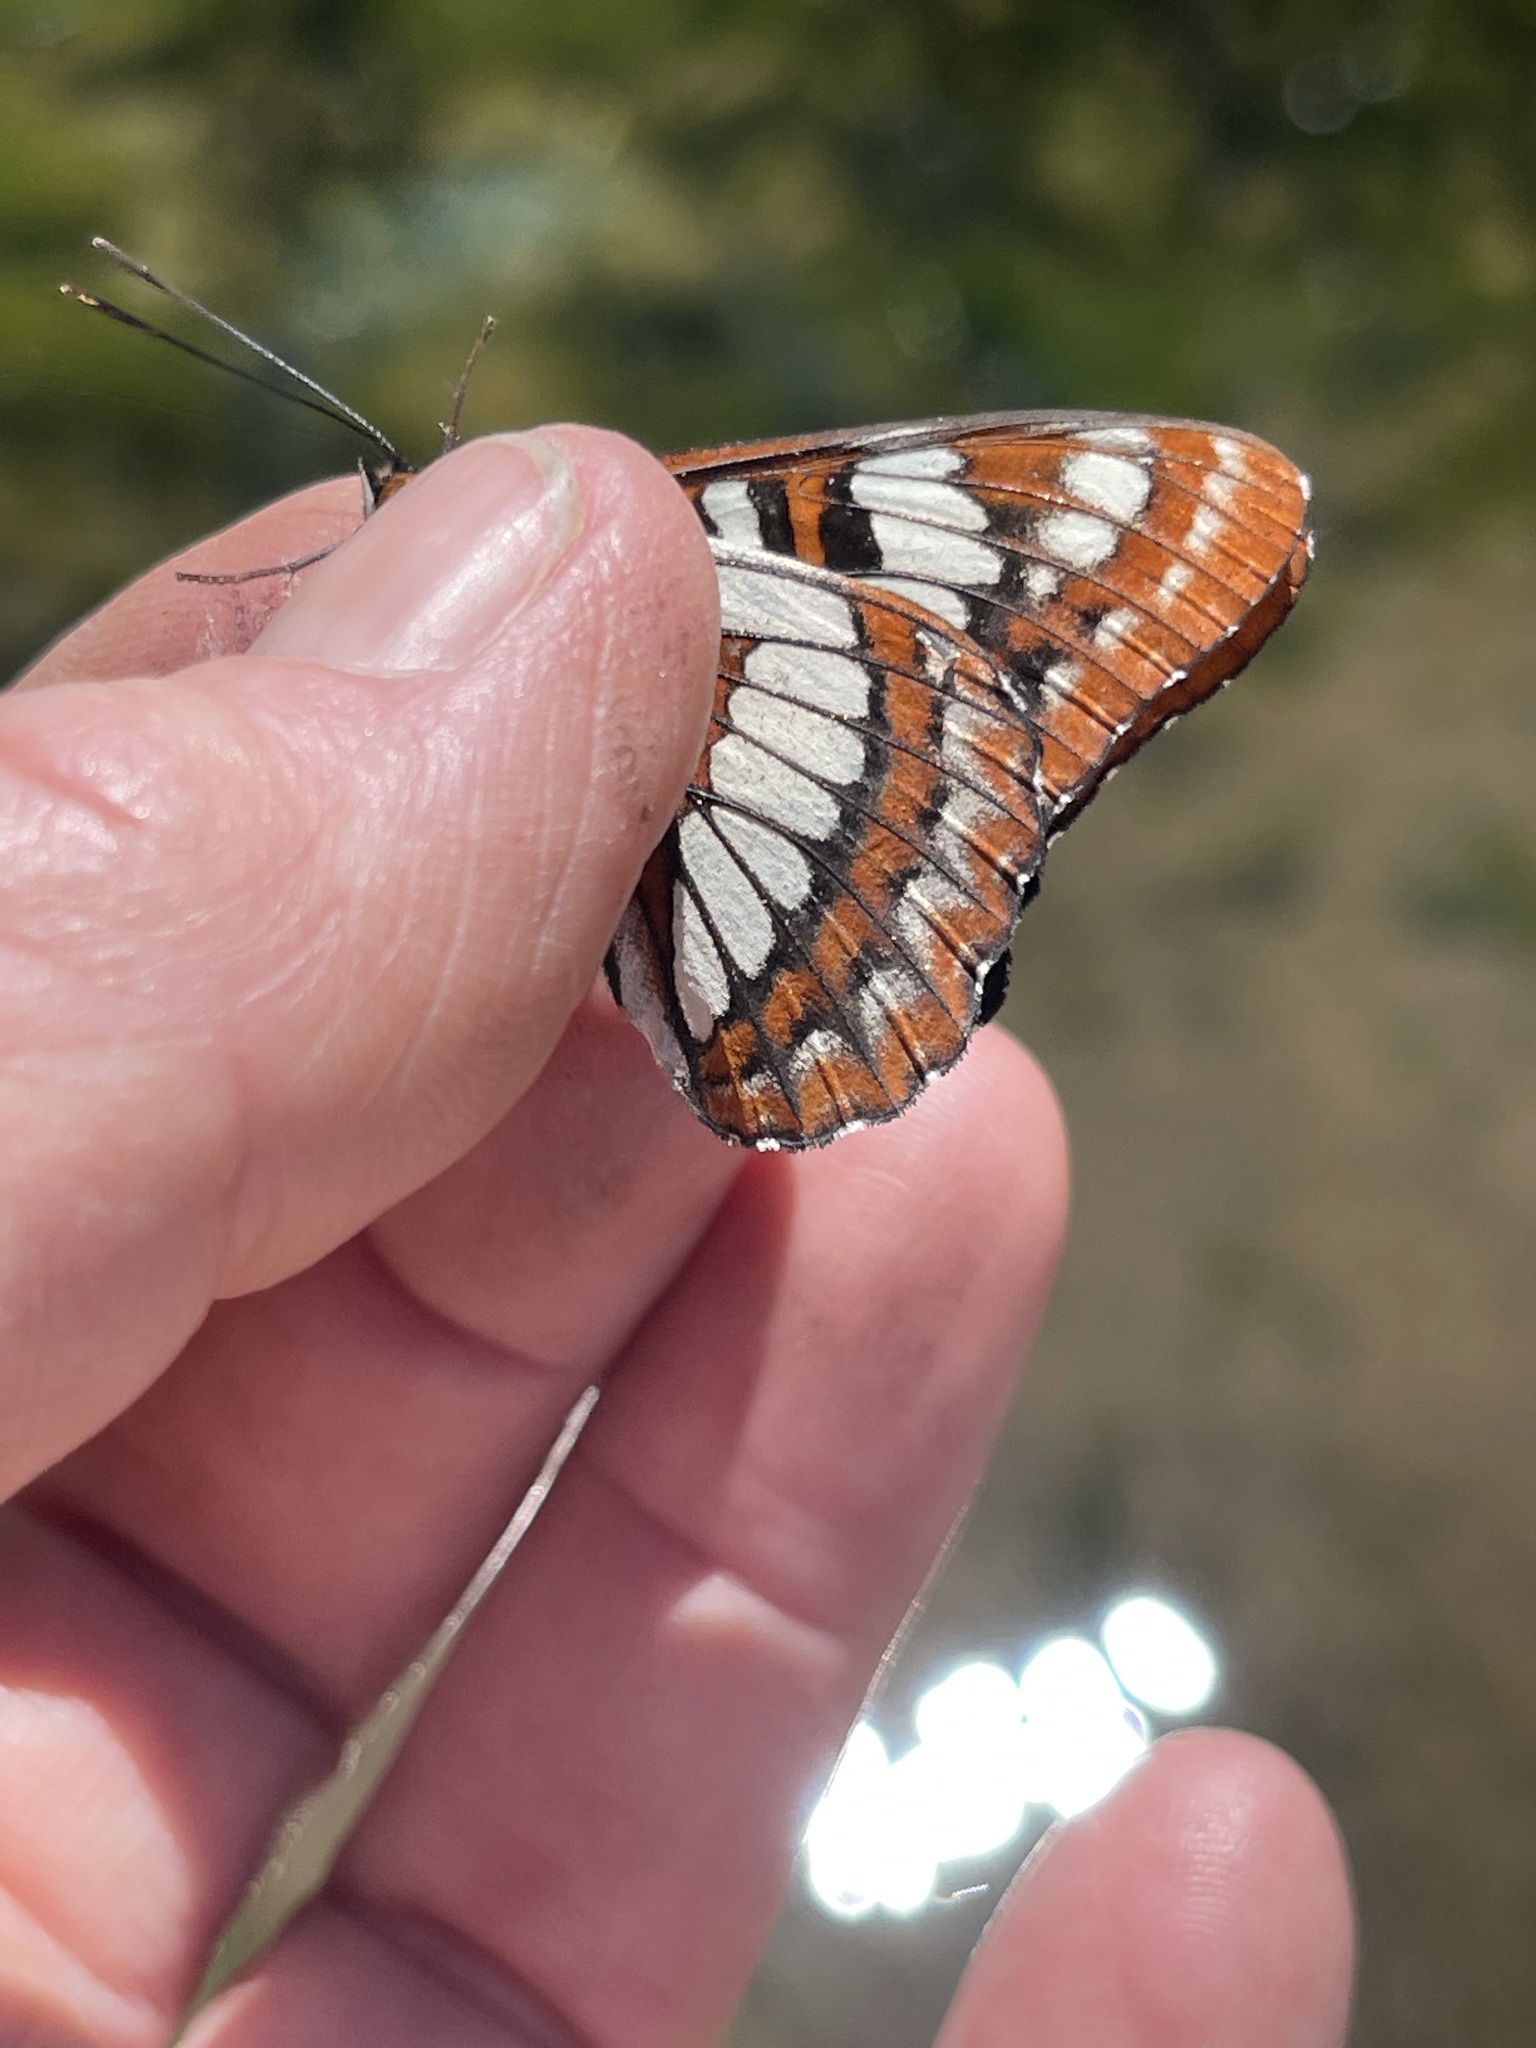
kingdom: Animalia
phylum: Arthropoda
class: Insecta
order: Lepidoptera
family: Nymphalidae
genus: Limenitis
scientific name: Limenitis lorquini
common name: Lorquin's admiral
